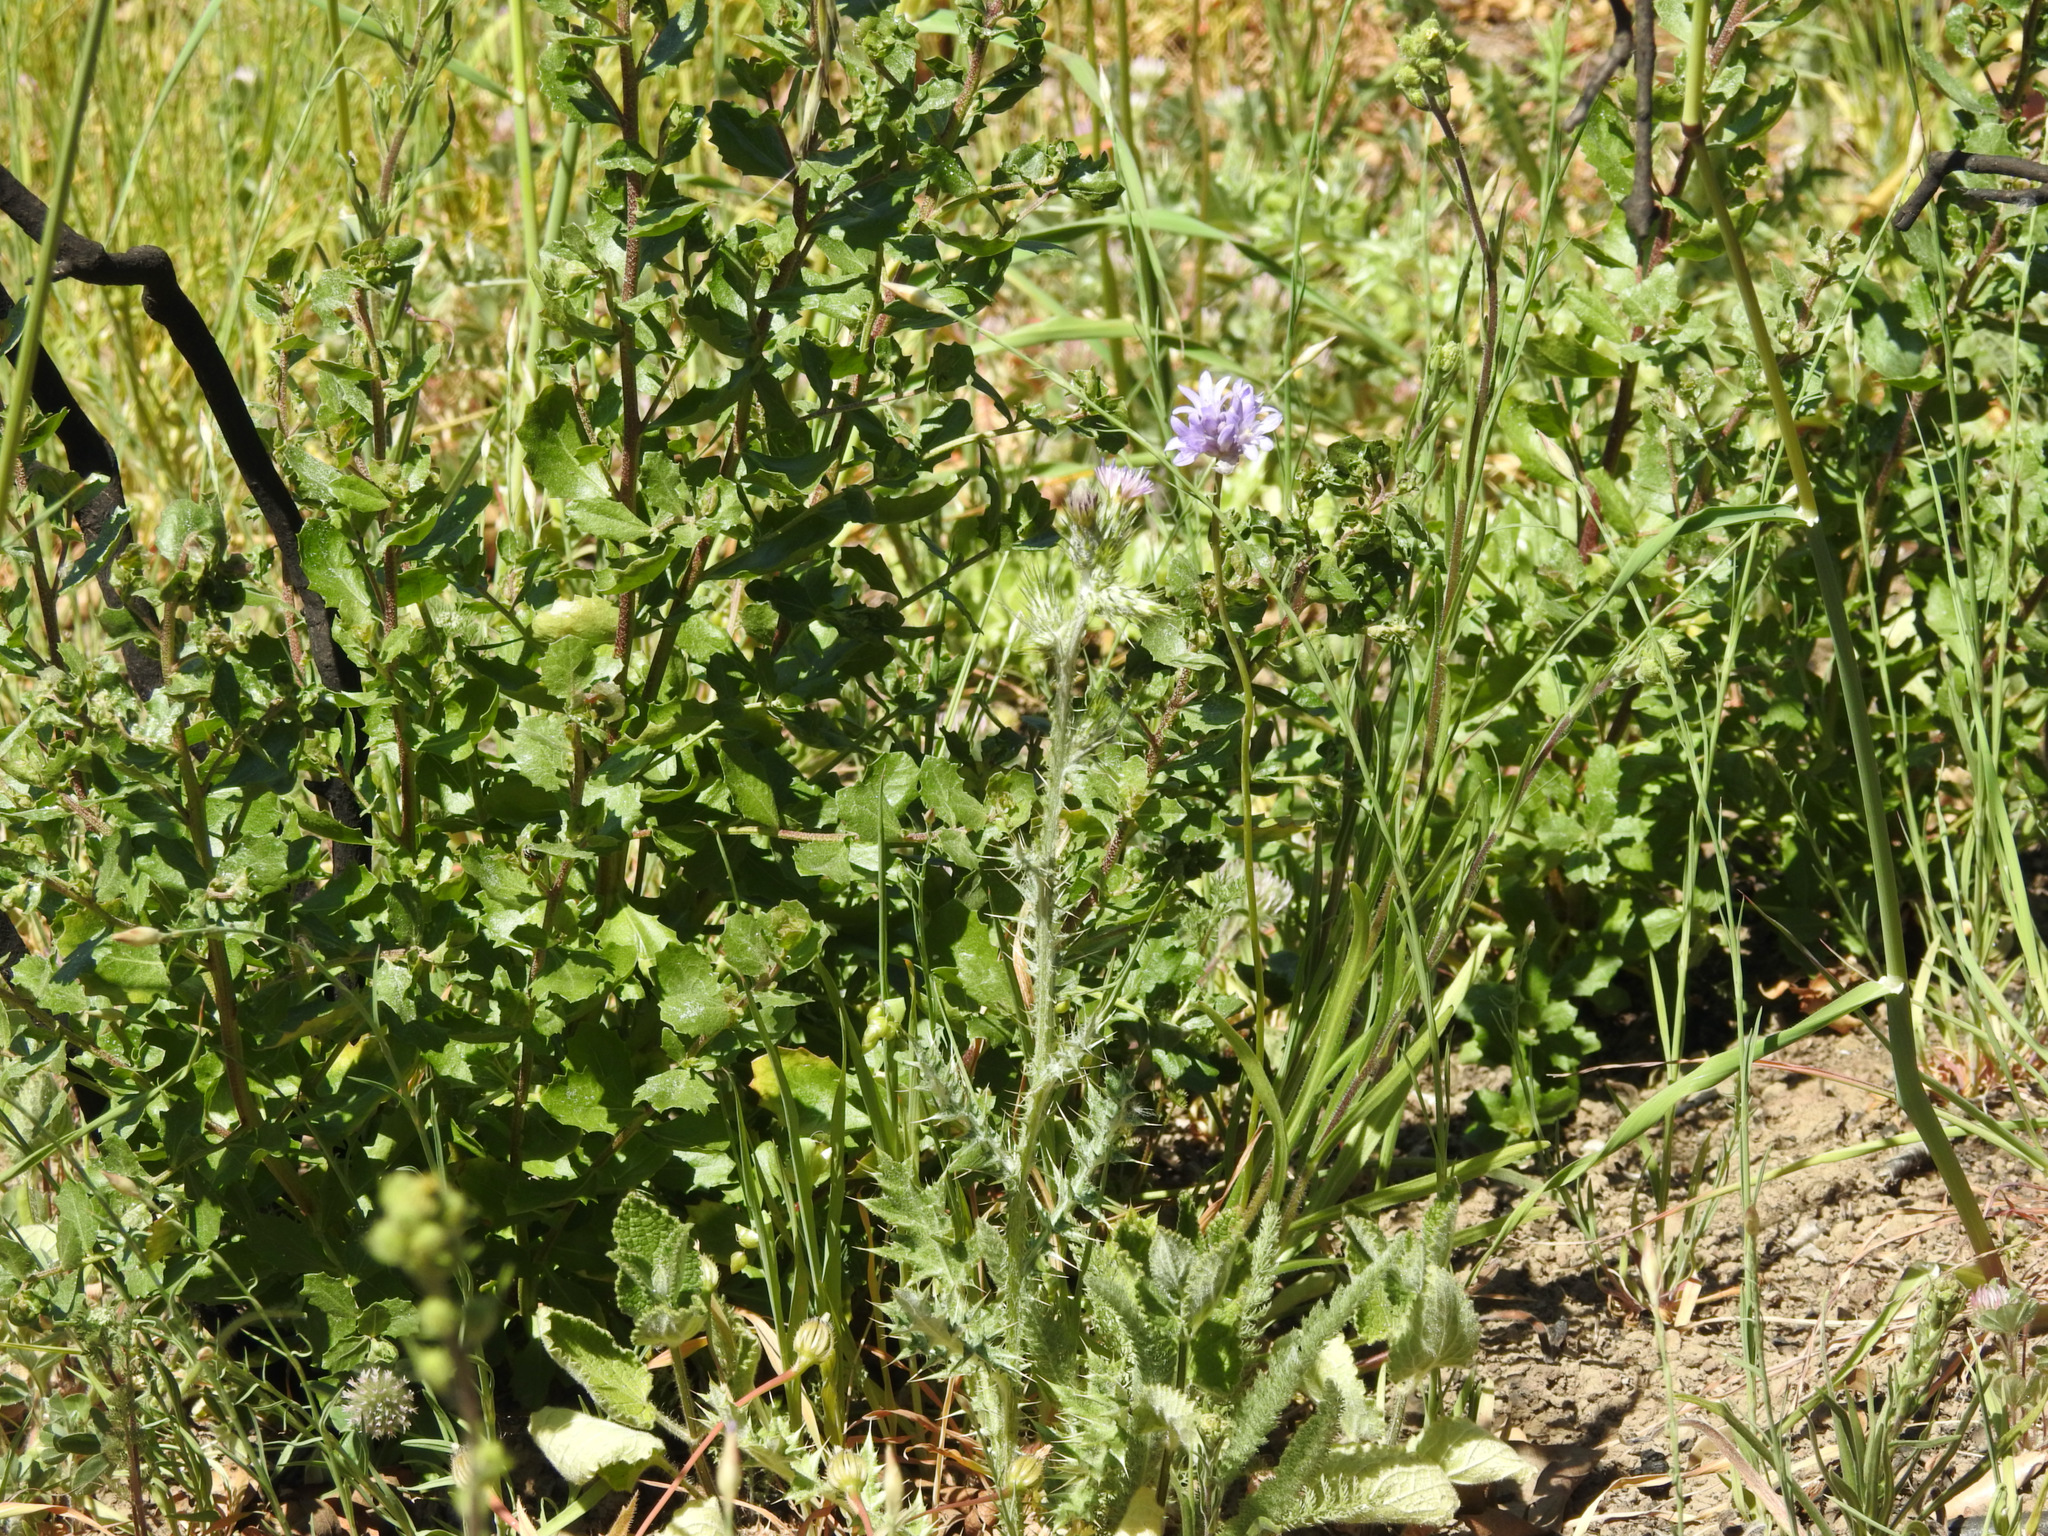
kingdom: Plantae
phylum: Tracheophyta
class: Magnoliopsida
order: Asterales
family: Asteraceae
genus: Baccharis
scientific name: Baccharis pilularis
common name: Coyotebrush
